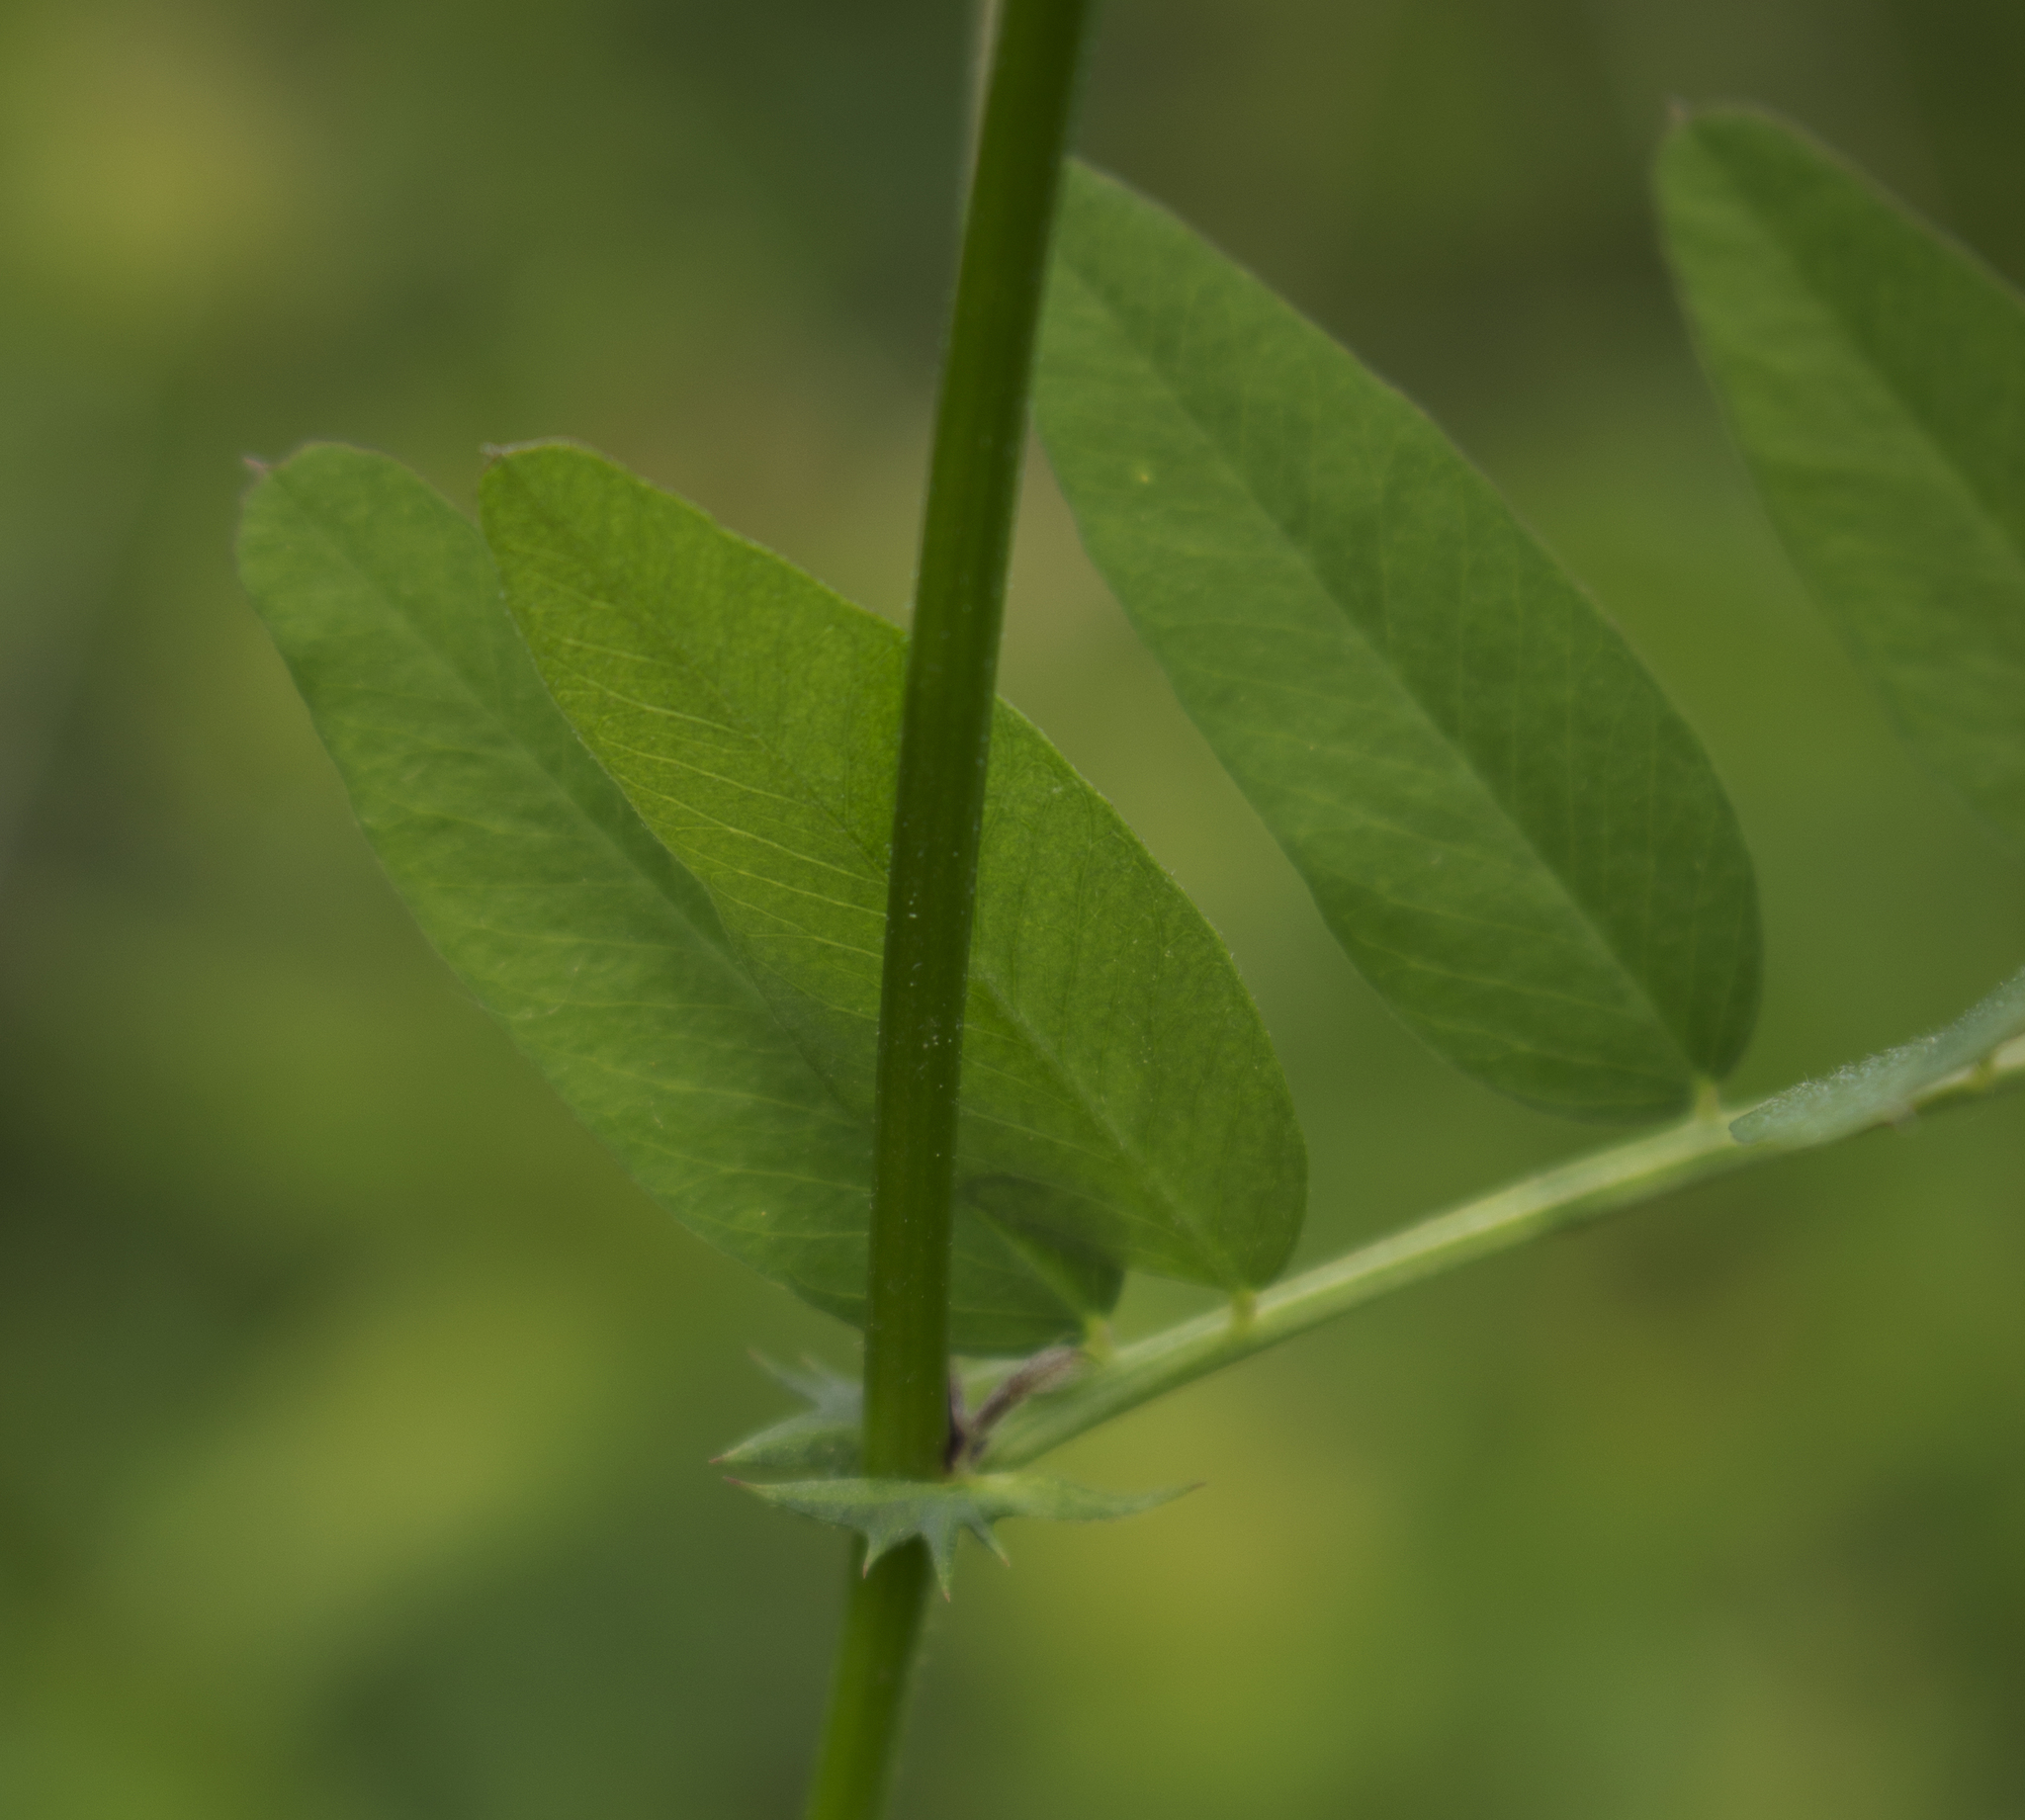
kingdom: Plantae
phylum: Tracheophyta
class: Magnoliopsida
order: Fabales
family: Fabaceae
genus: Vicia
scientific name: Vicia americana
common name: American vetch
